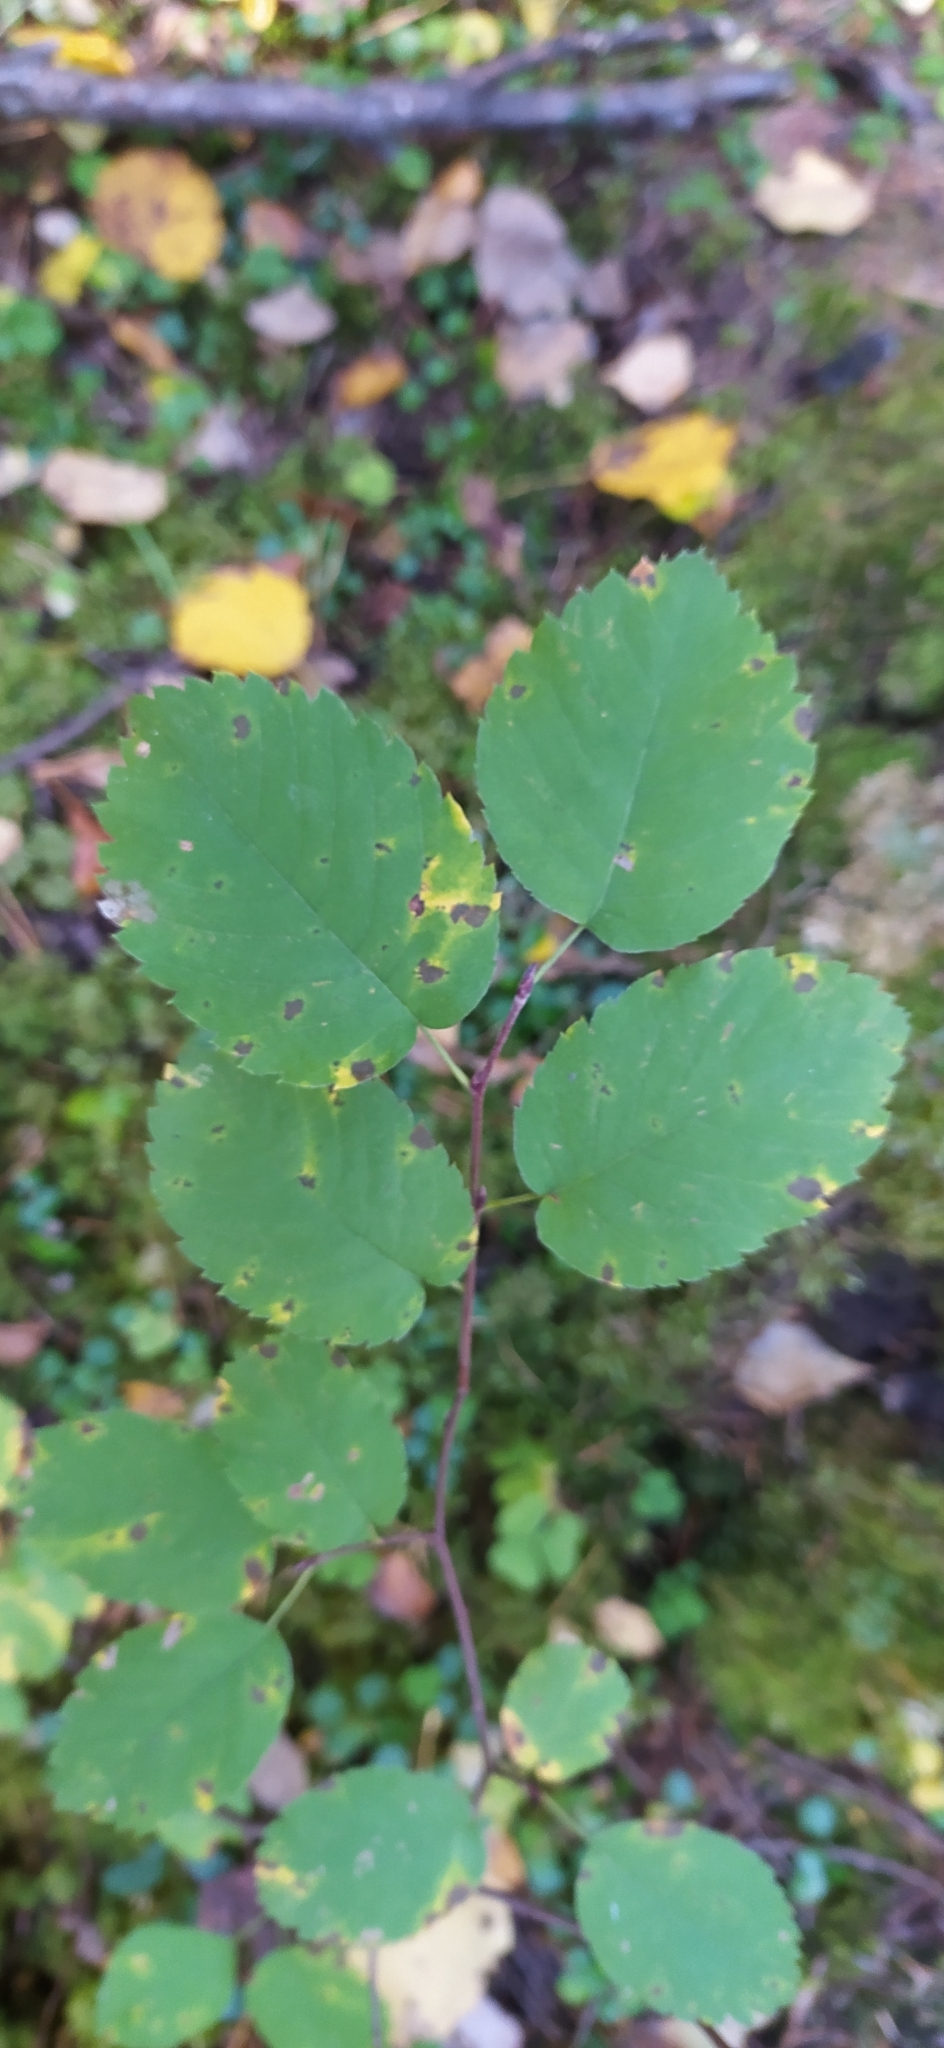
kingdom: Plantae
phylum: Tracheophyta
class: Magnoliopsida
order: Rosales
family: Rosaceae
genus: Amelanchier
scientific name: Amelanchier alnifolia
